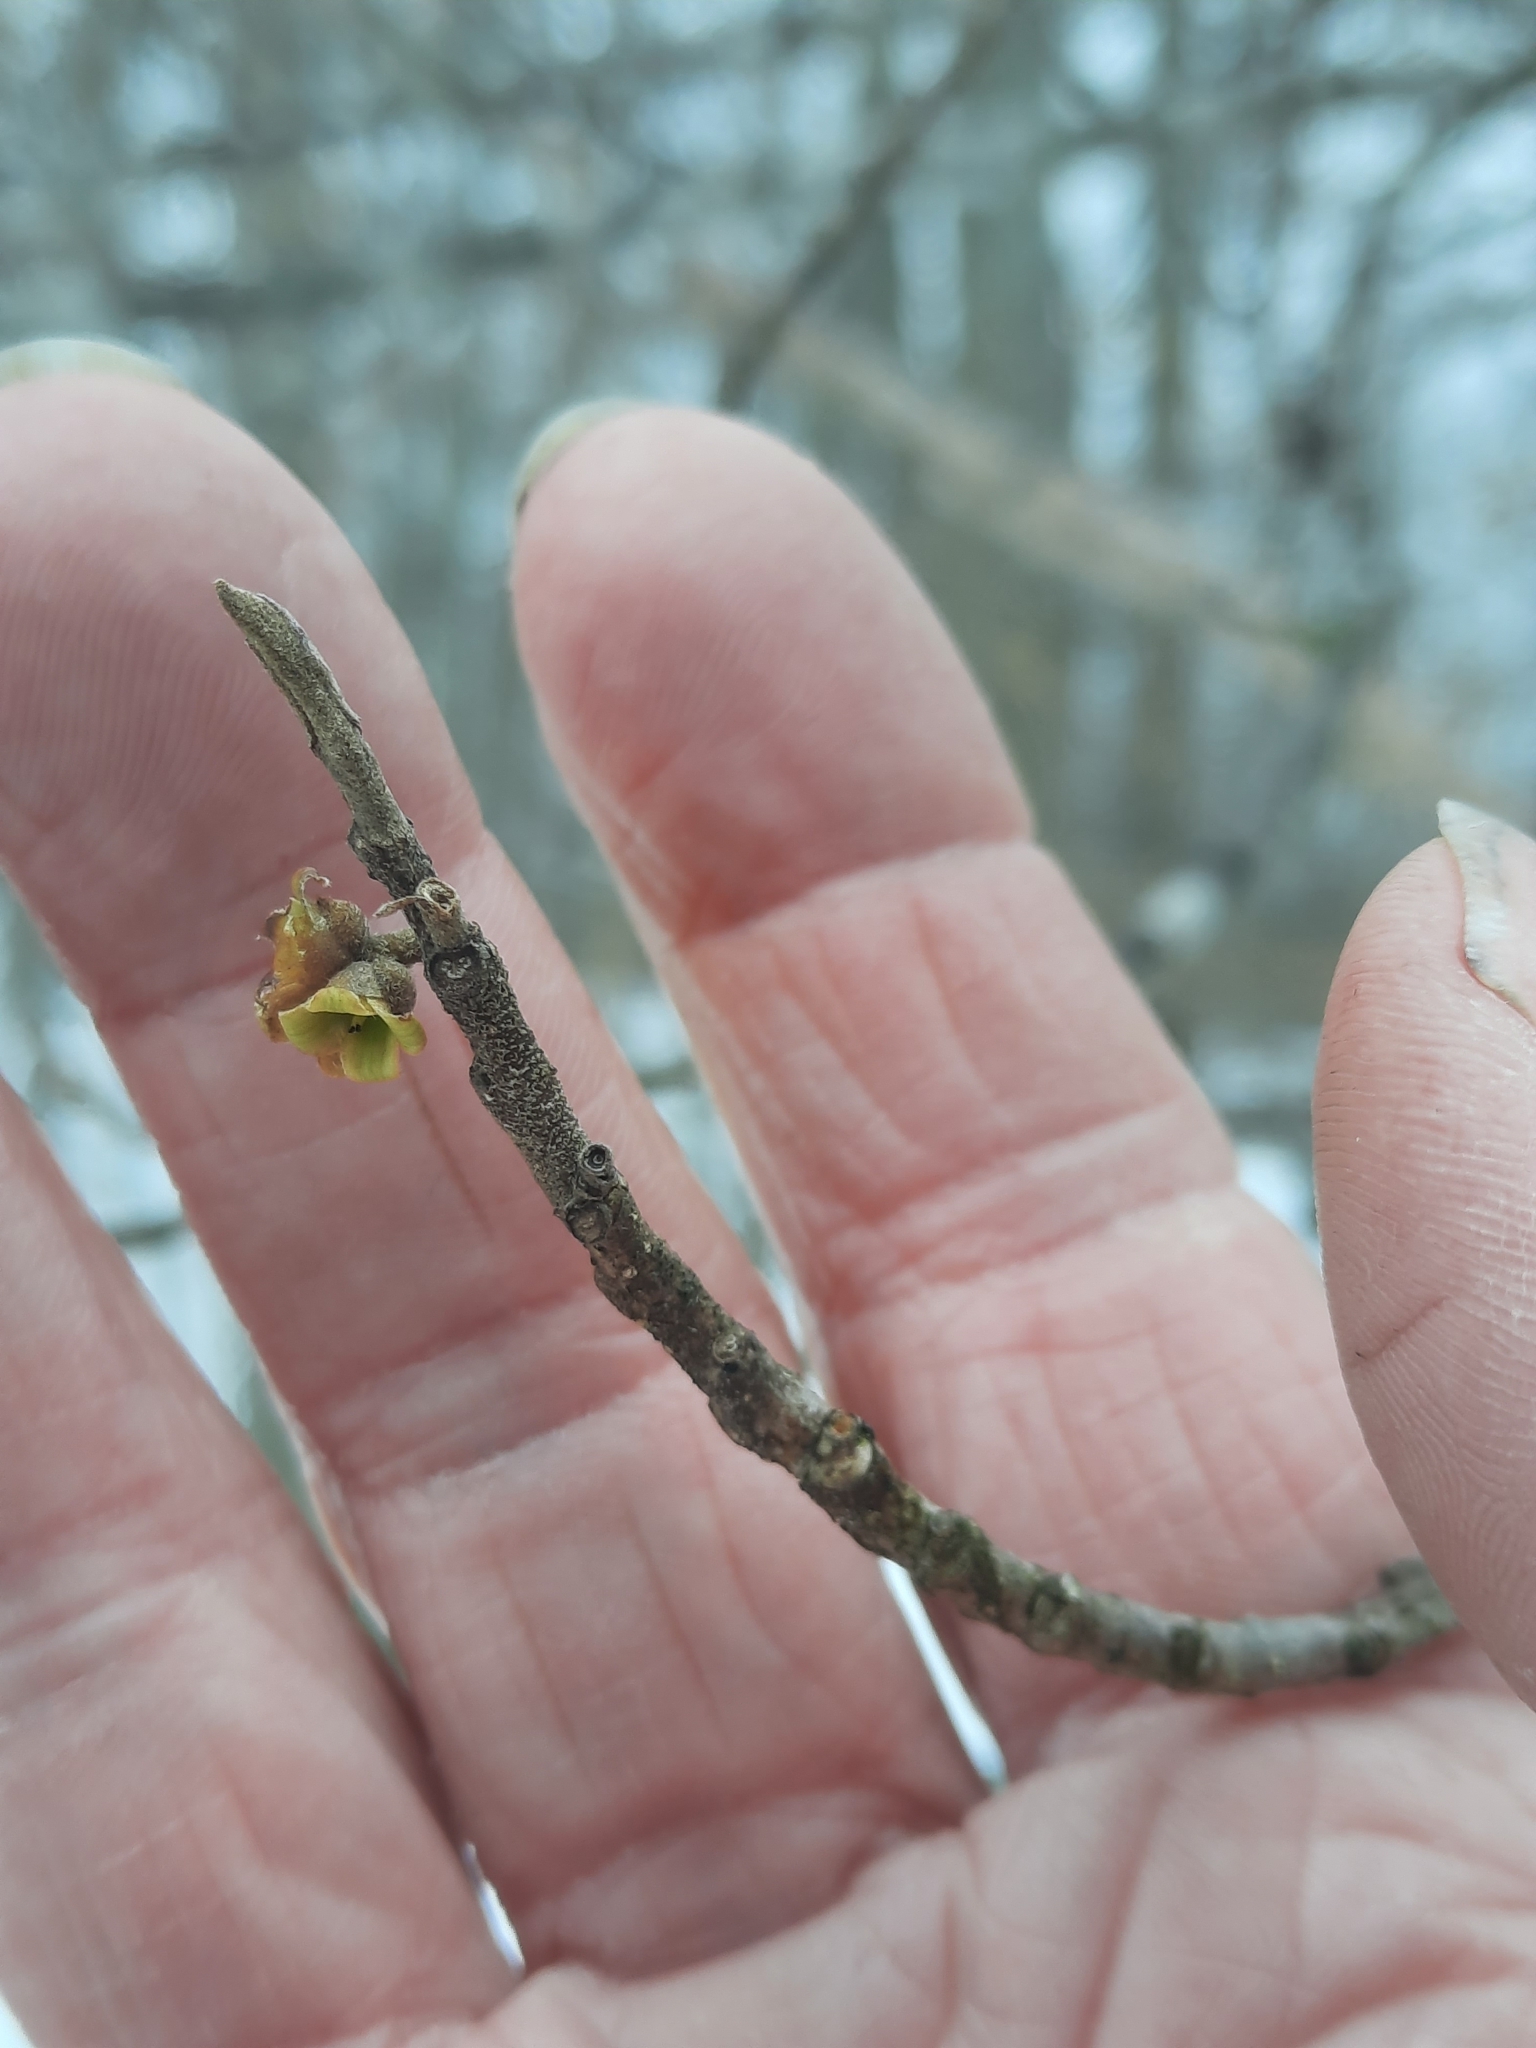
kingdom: Plantae
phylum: Tracheophyta
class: Magnoliopsida
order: Saxifragales
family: Hamamelidaceae
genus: Hamamelis
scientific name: Hamamelis virginiana
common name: Witch-hazel
